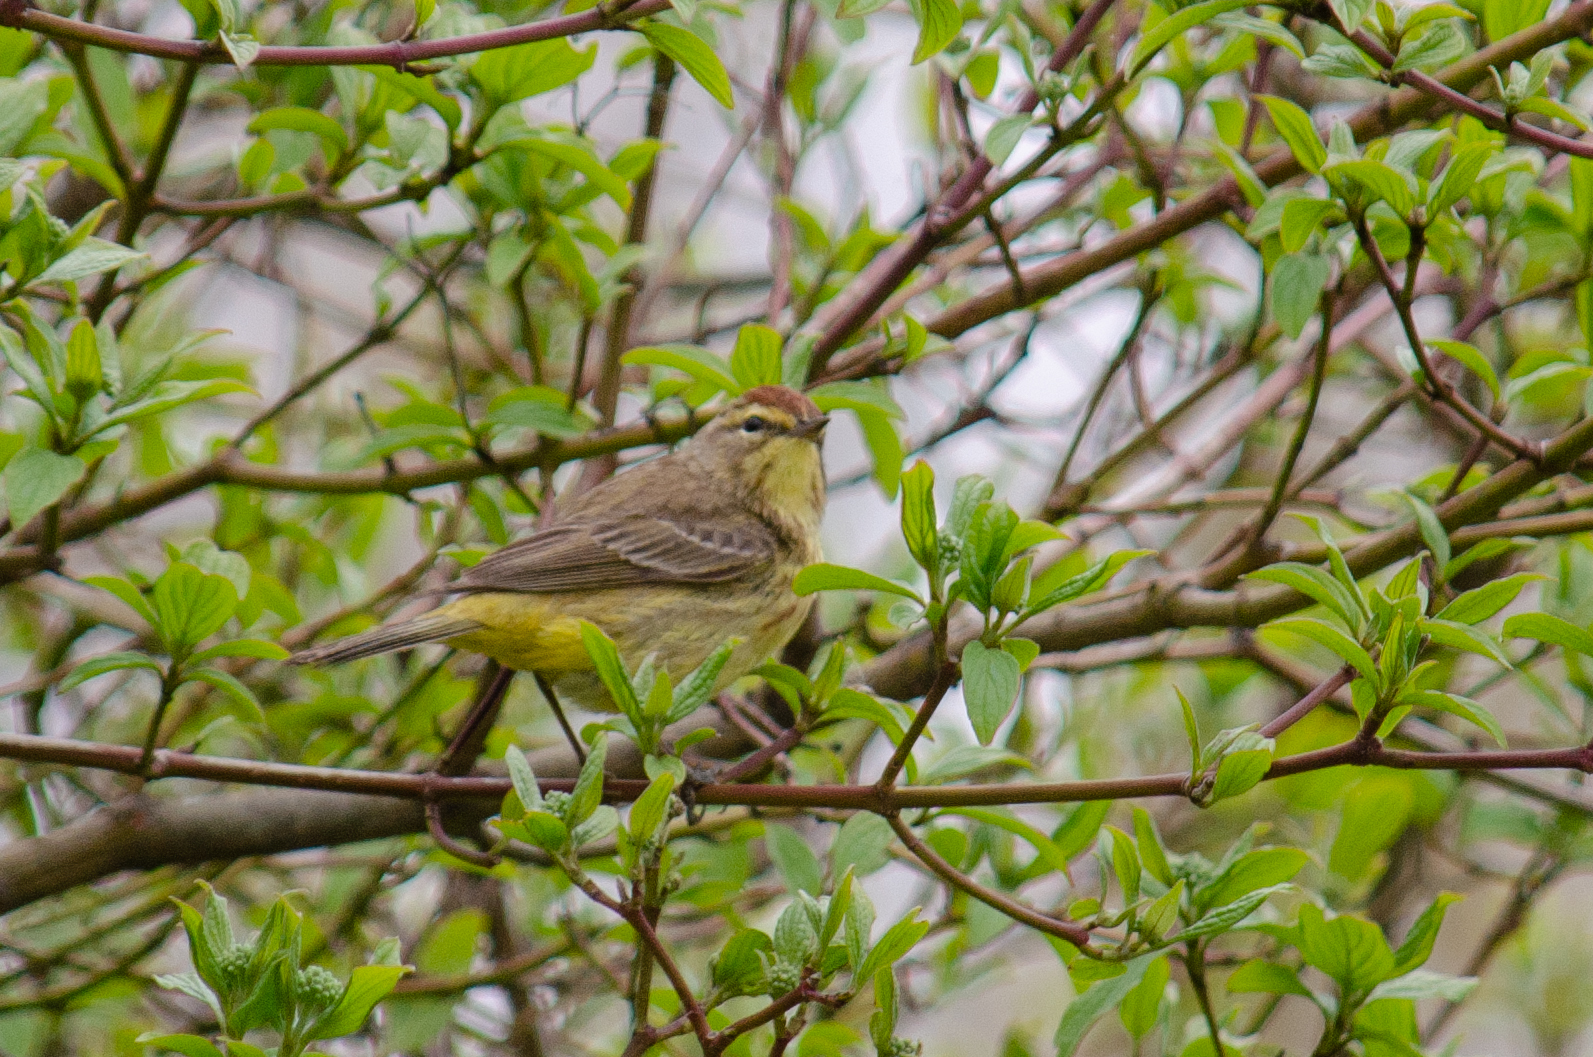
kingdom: Animalia
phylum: Chordata
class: Aves
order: Passeriformes
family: Parulidae
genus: Setophaga
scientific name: Setophaga palmarum
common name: Palm warbler
